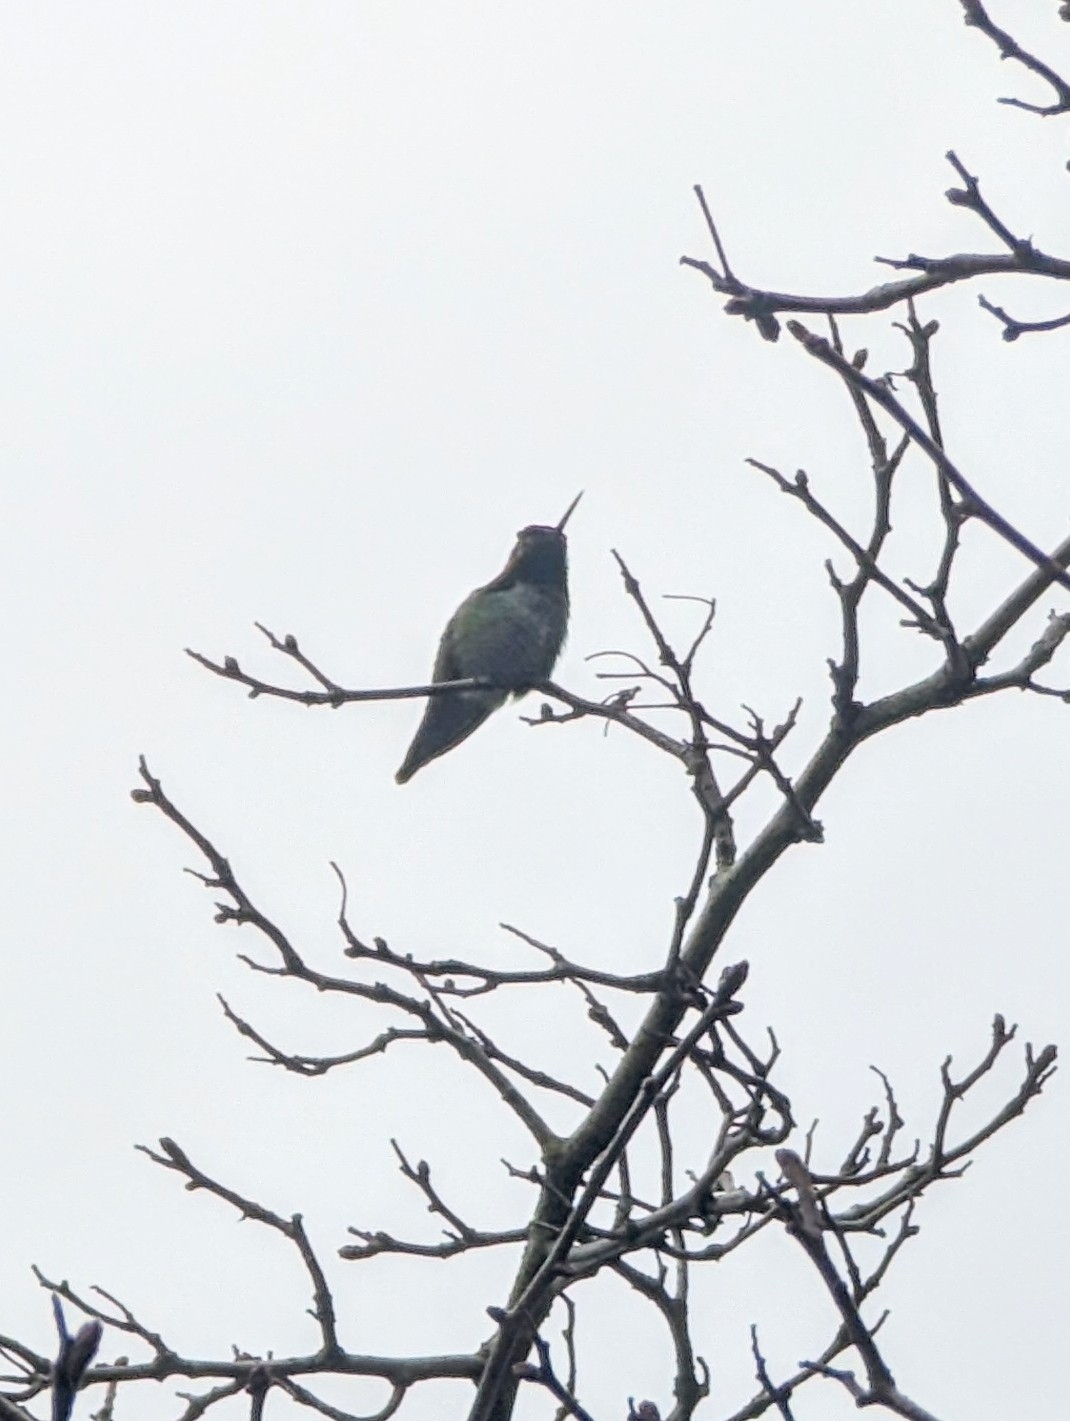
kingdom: Animalia
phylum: Chordata
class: Aves
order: Apodiformes
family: Trochilidae
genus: Calypte
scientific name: Calypte anna
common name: Anna's hummingbird
